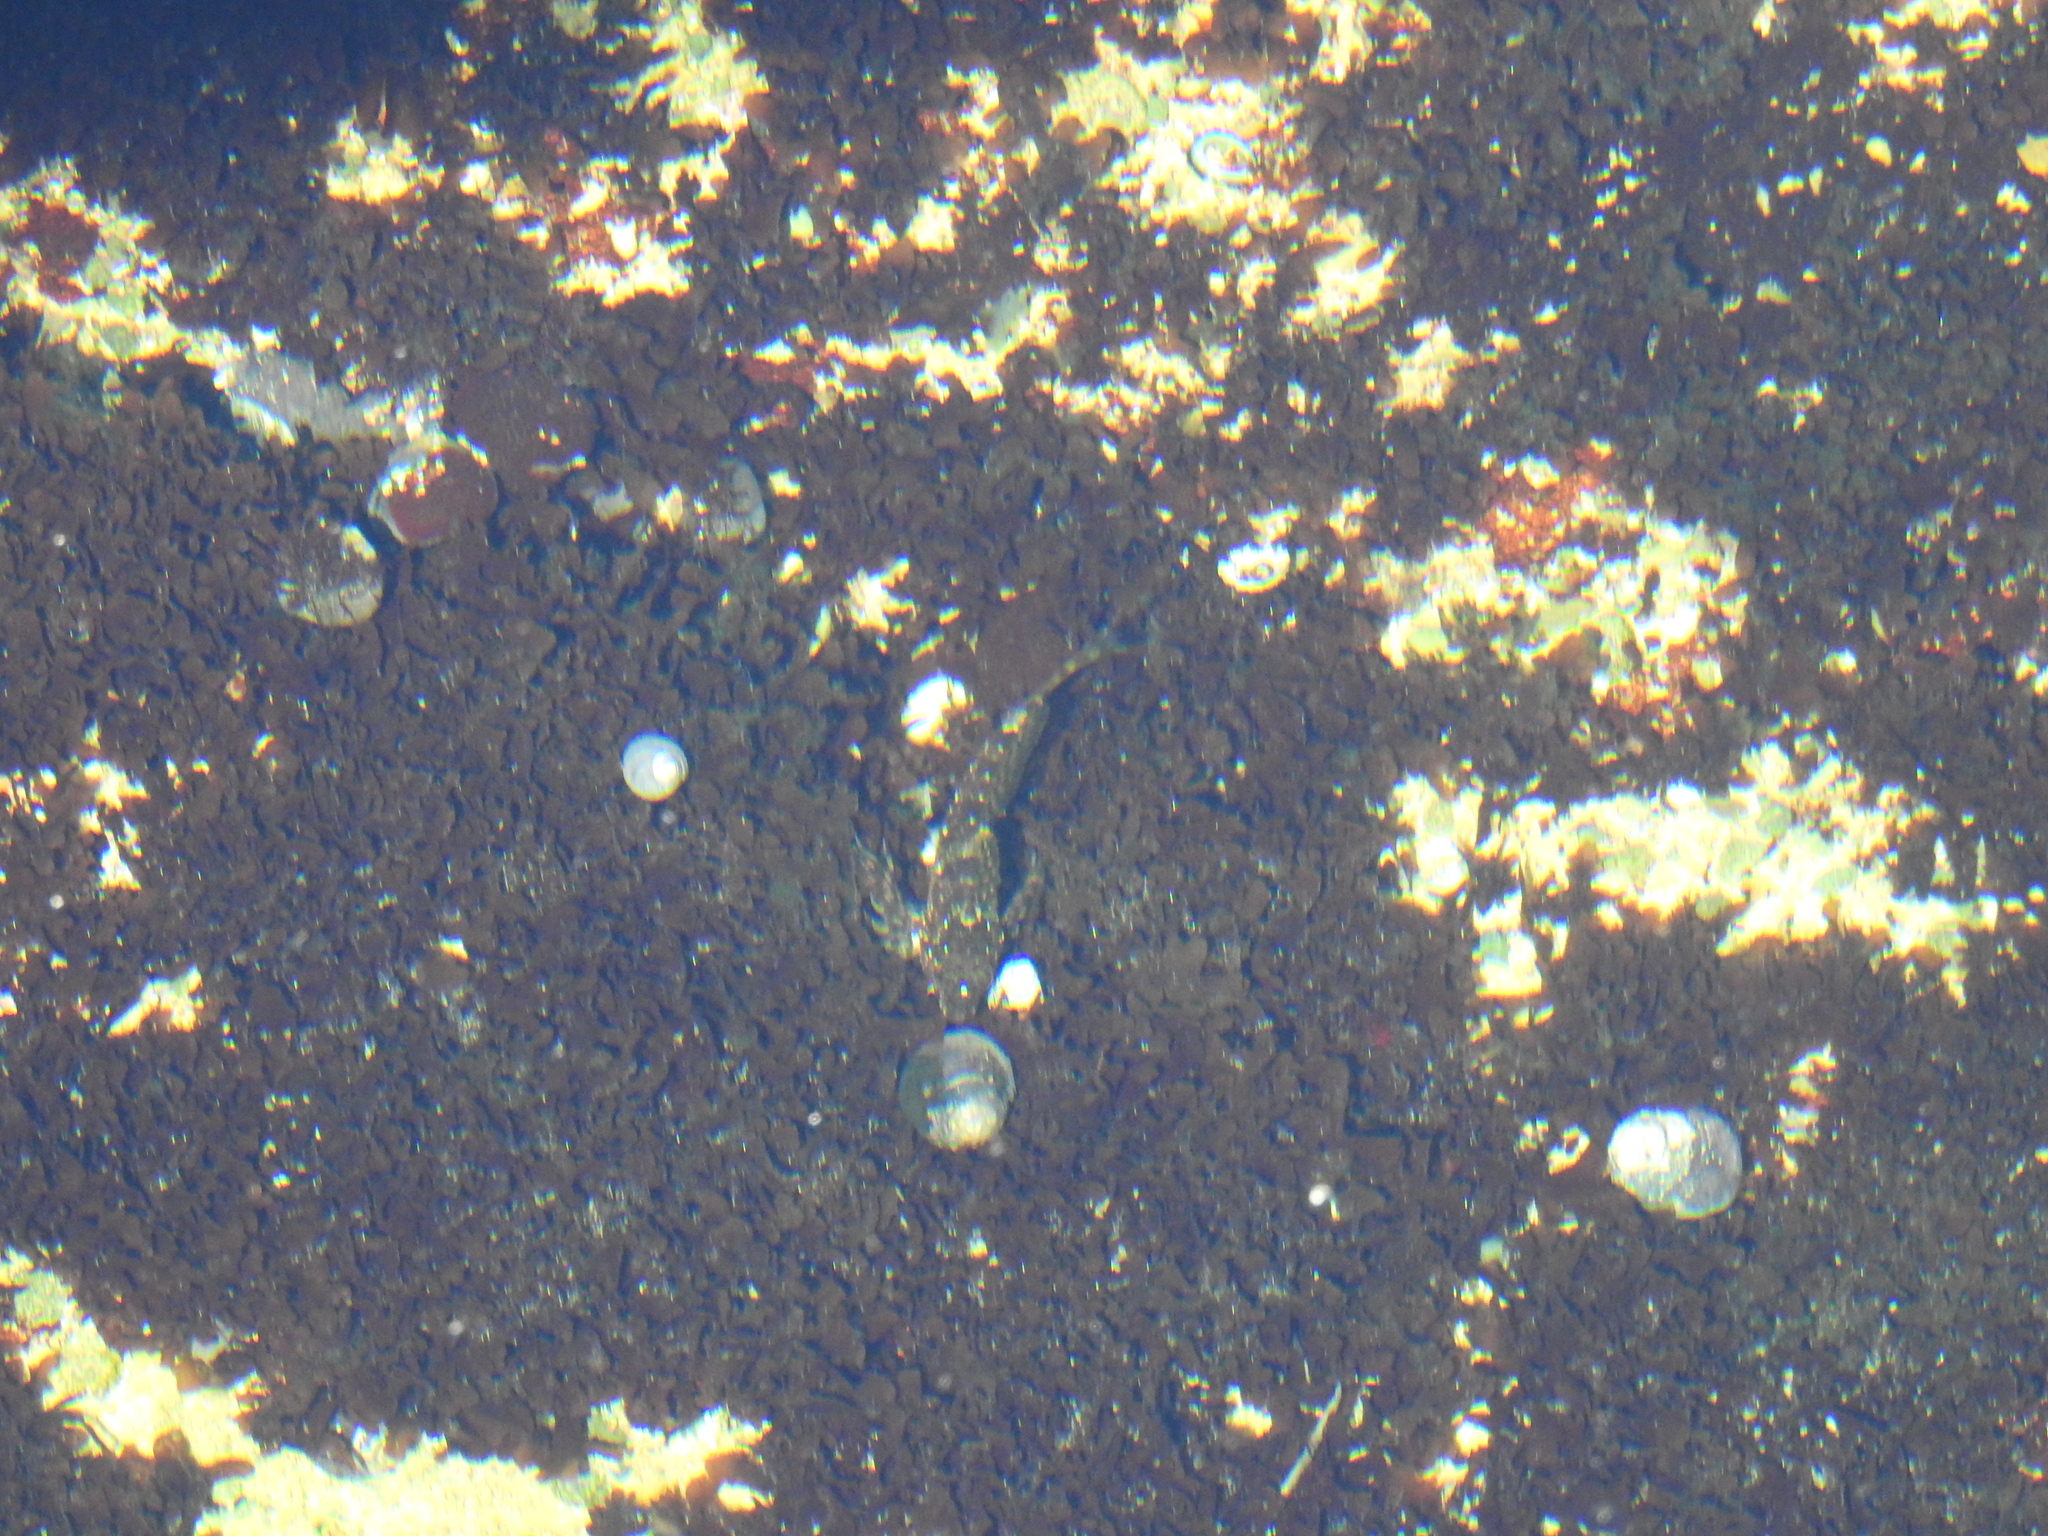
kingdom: Animalia
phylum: Chordata
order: Scorpaeniformes
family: Cottidae
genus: Clinocottus
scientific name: Clinocottus analis
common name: Woolly sculpin
